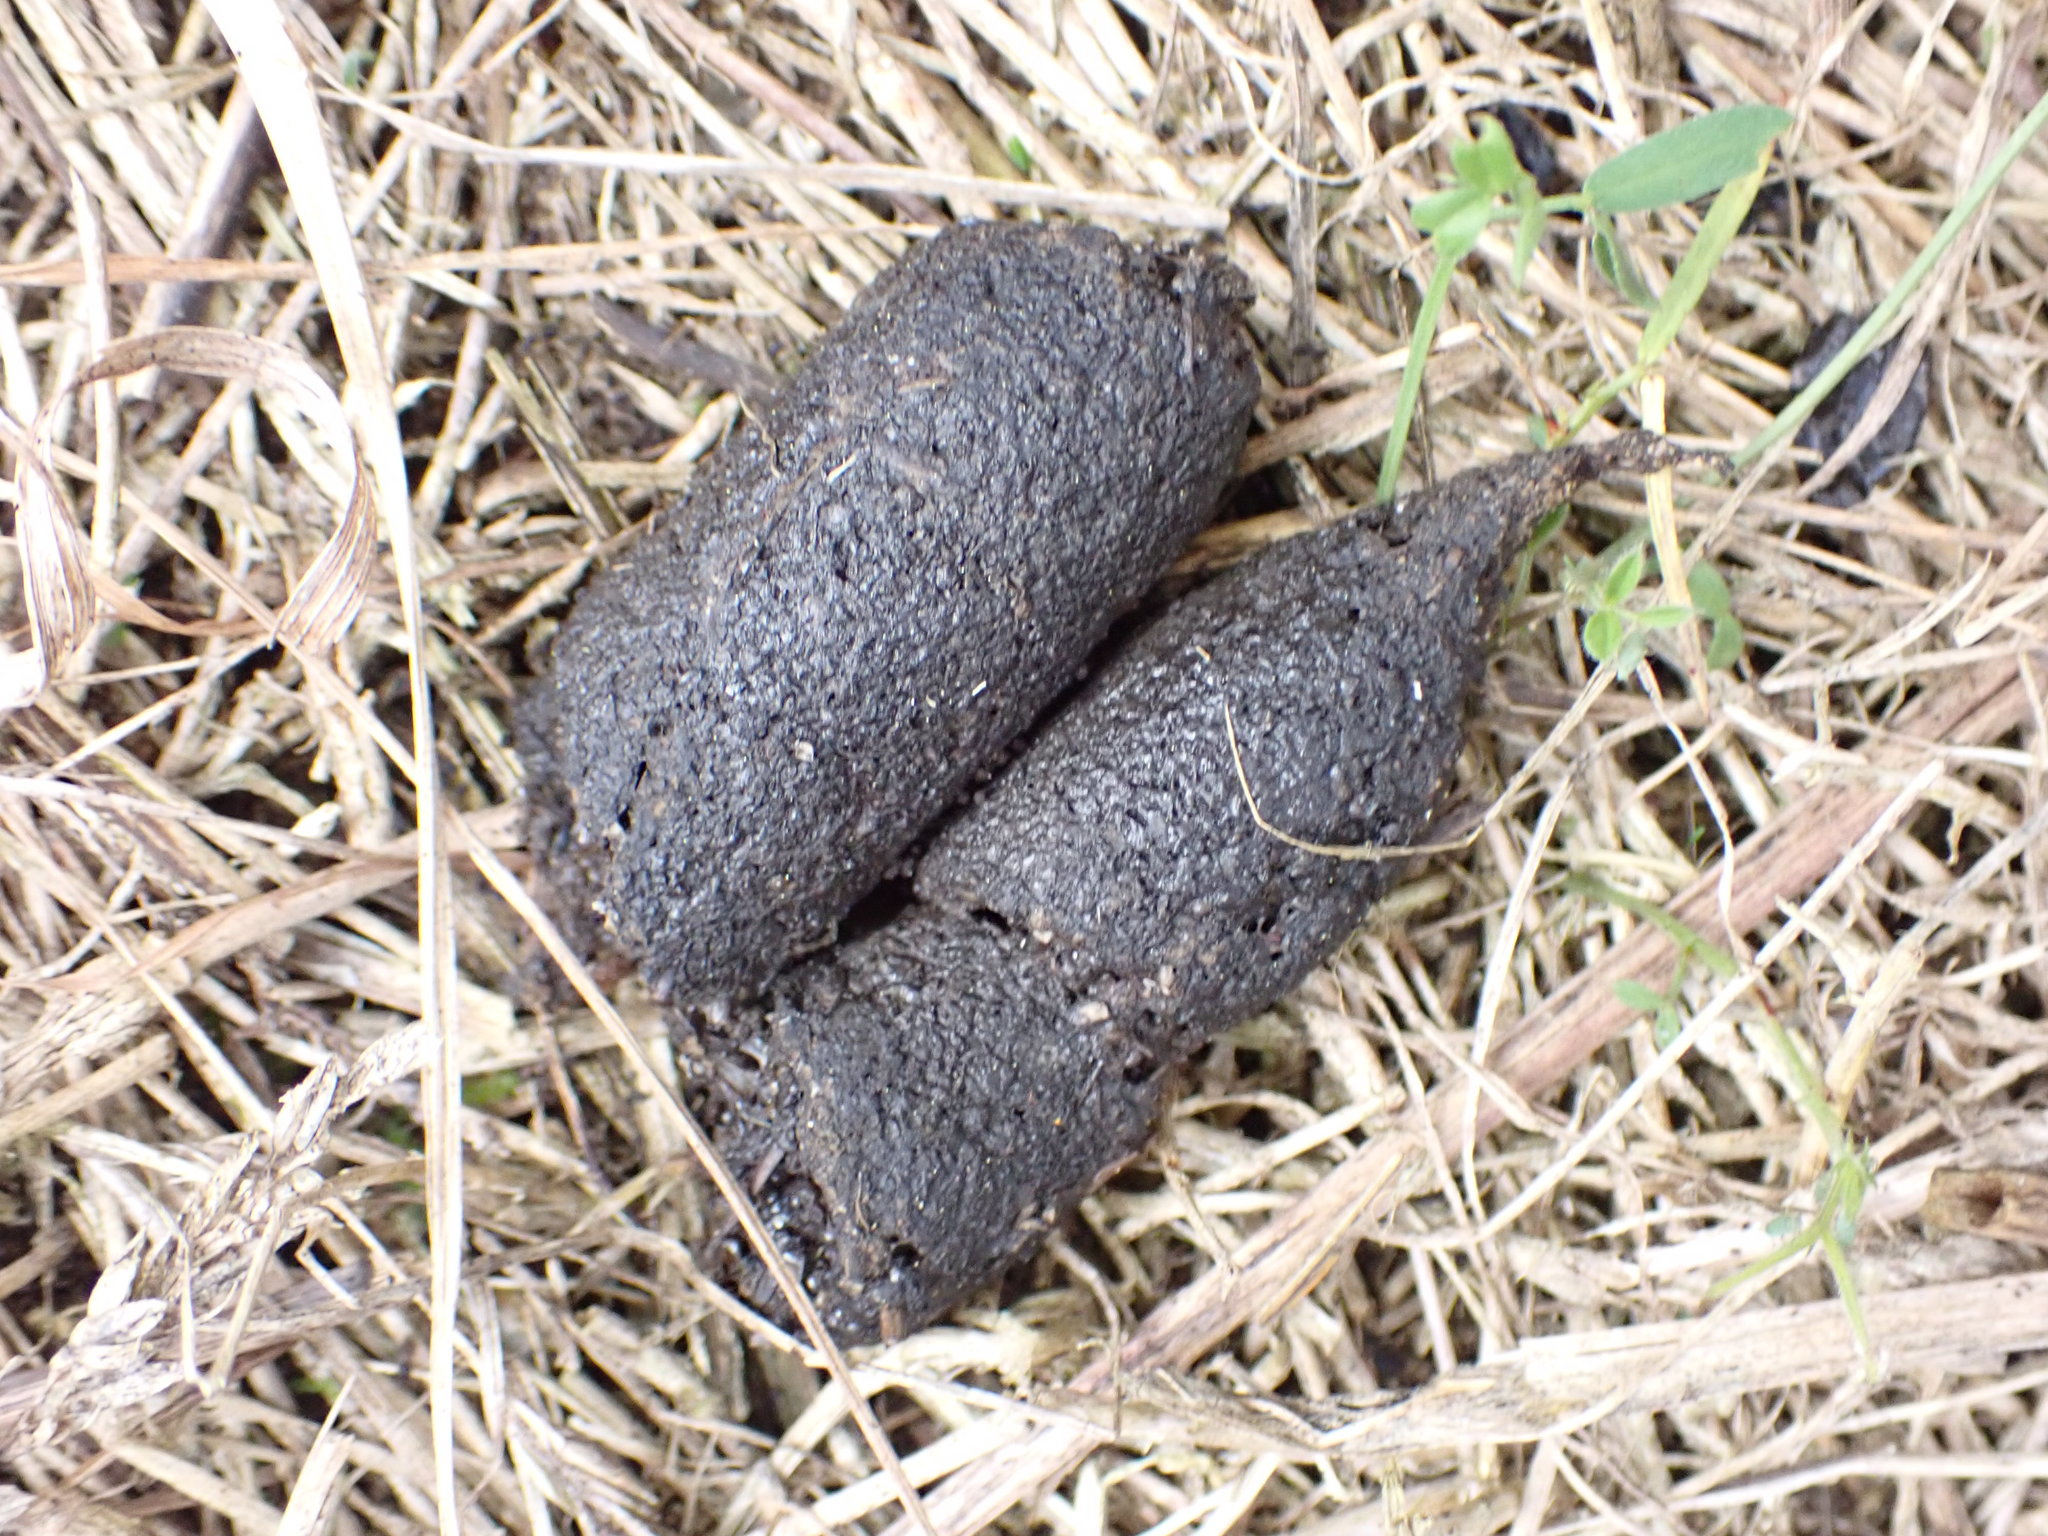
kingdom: Animalia
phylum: Chordata
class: Mammalia
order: Carnivora
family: Felidae
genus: Felis
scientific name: Felis catus
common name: Domestic cat
